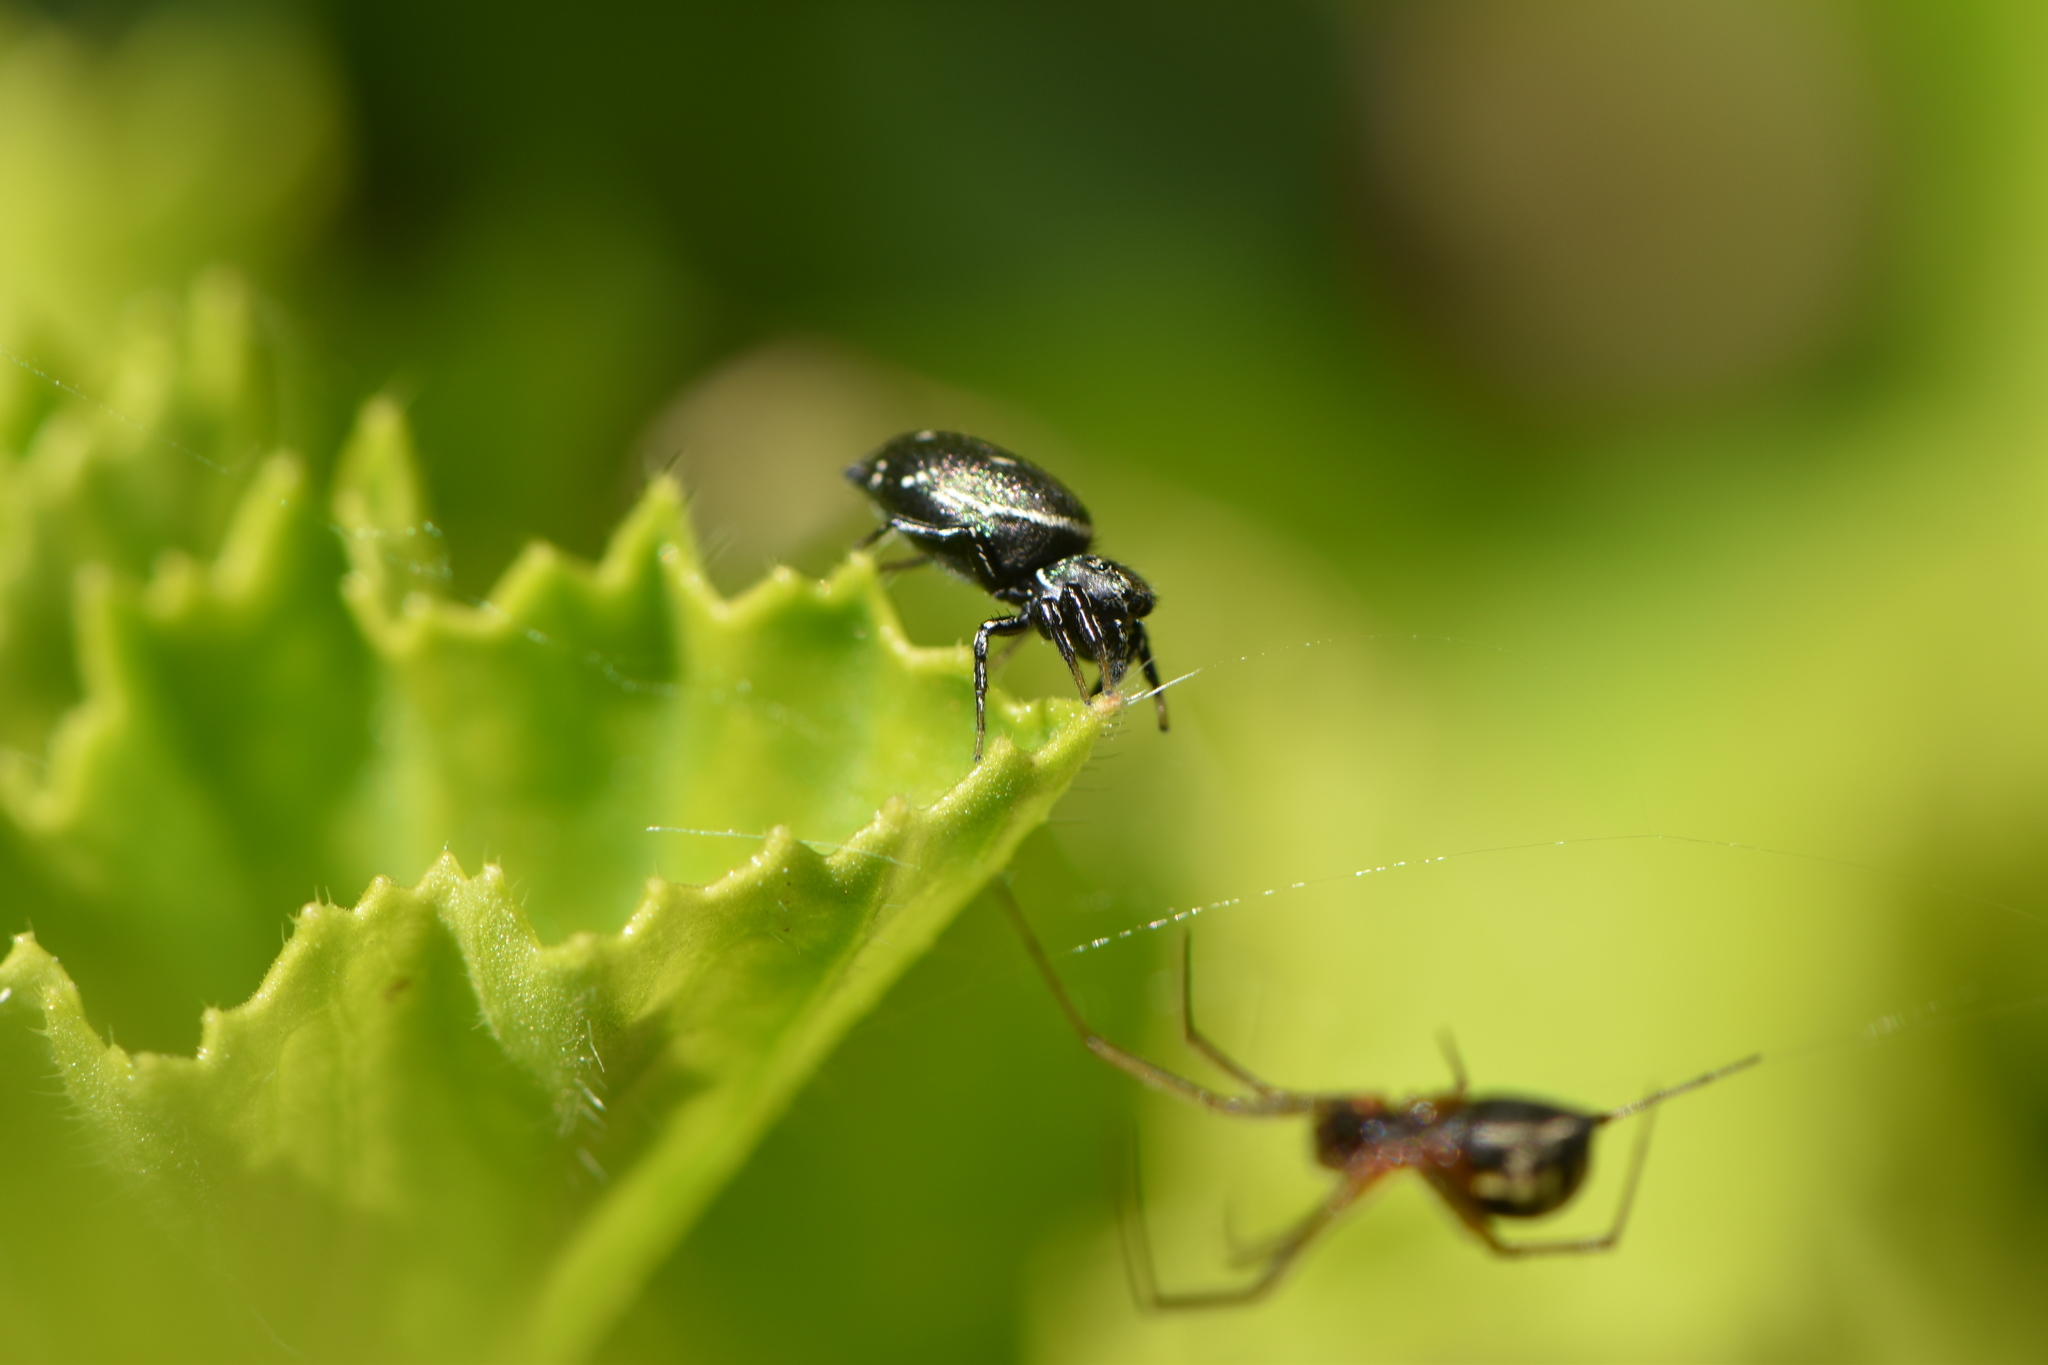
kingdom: Animalia
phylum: Arthropoda
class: Arachnida
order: Araneae
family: Salticidae
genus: Heliophanus
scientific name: Heliophanus kochii
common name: Sun jumping spider
